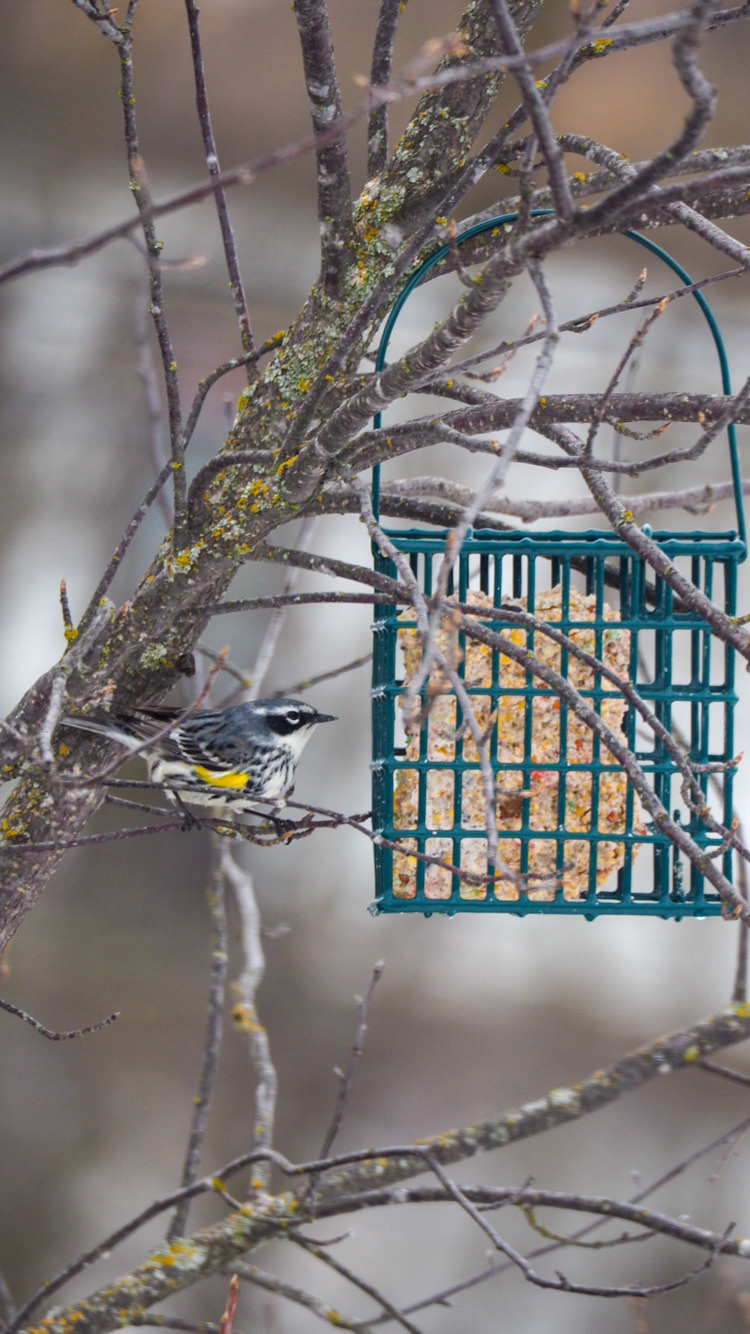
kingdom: Animalia
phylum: Chordata
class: Aves
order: Passeriformes
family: Parulidae
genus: Setophaga
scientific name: Setophaga coronata
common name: Myrtle warbler
